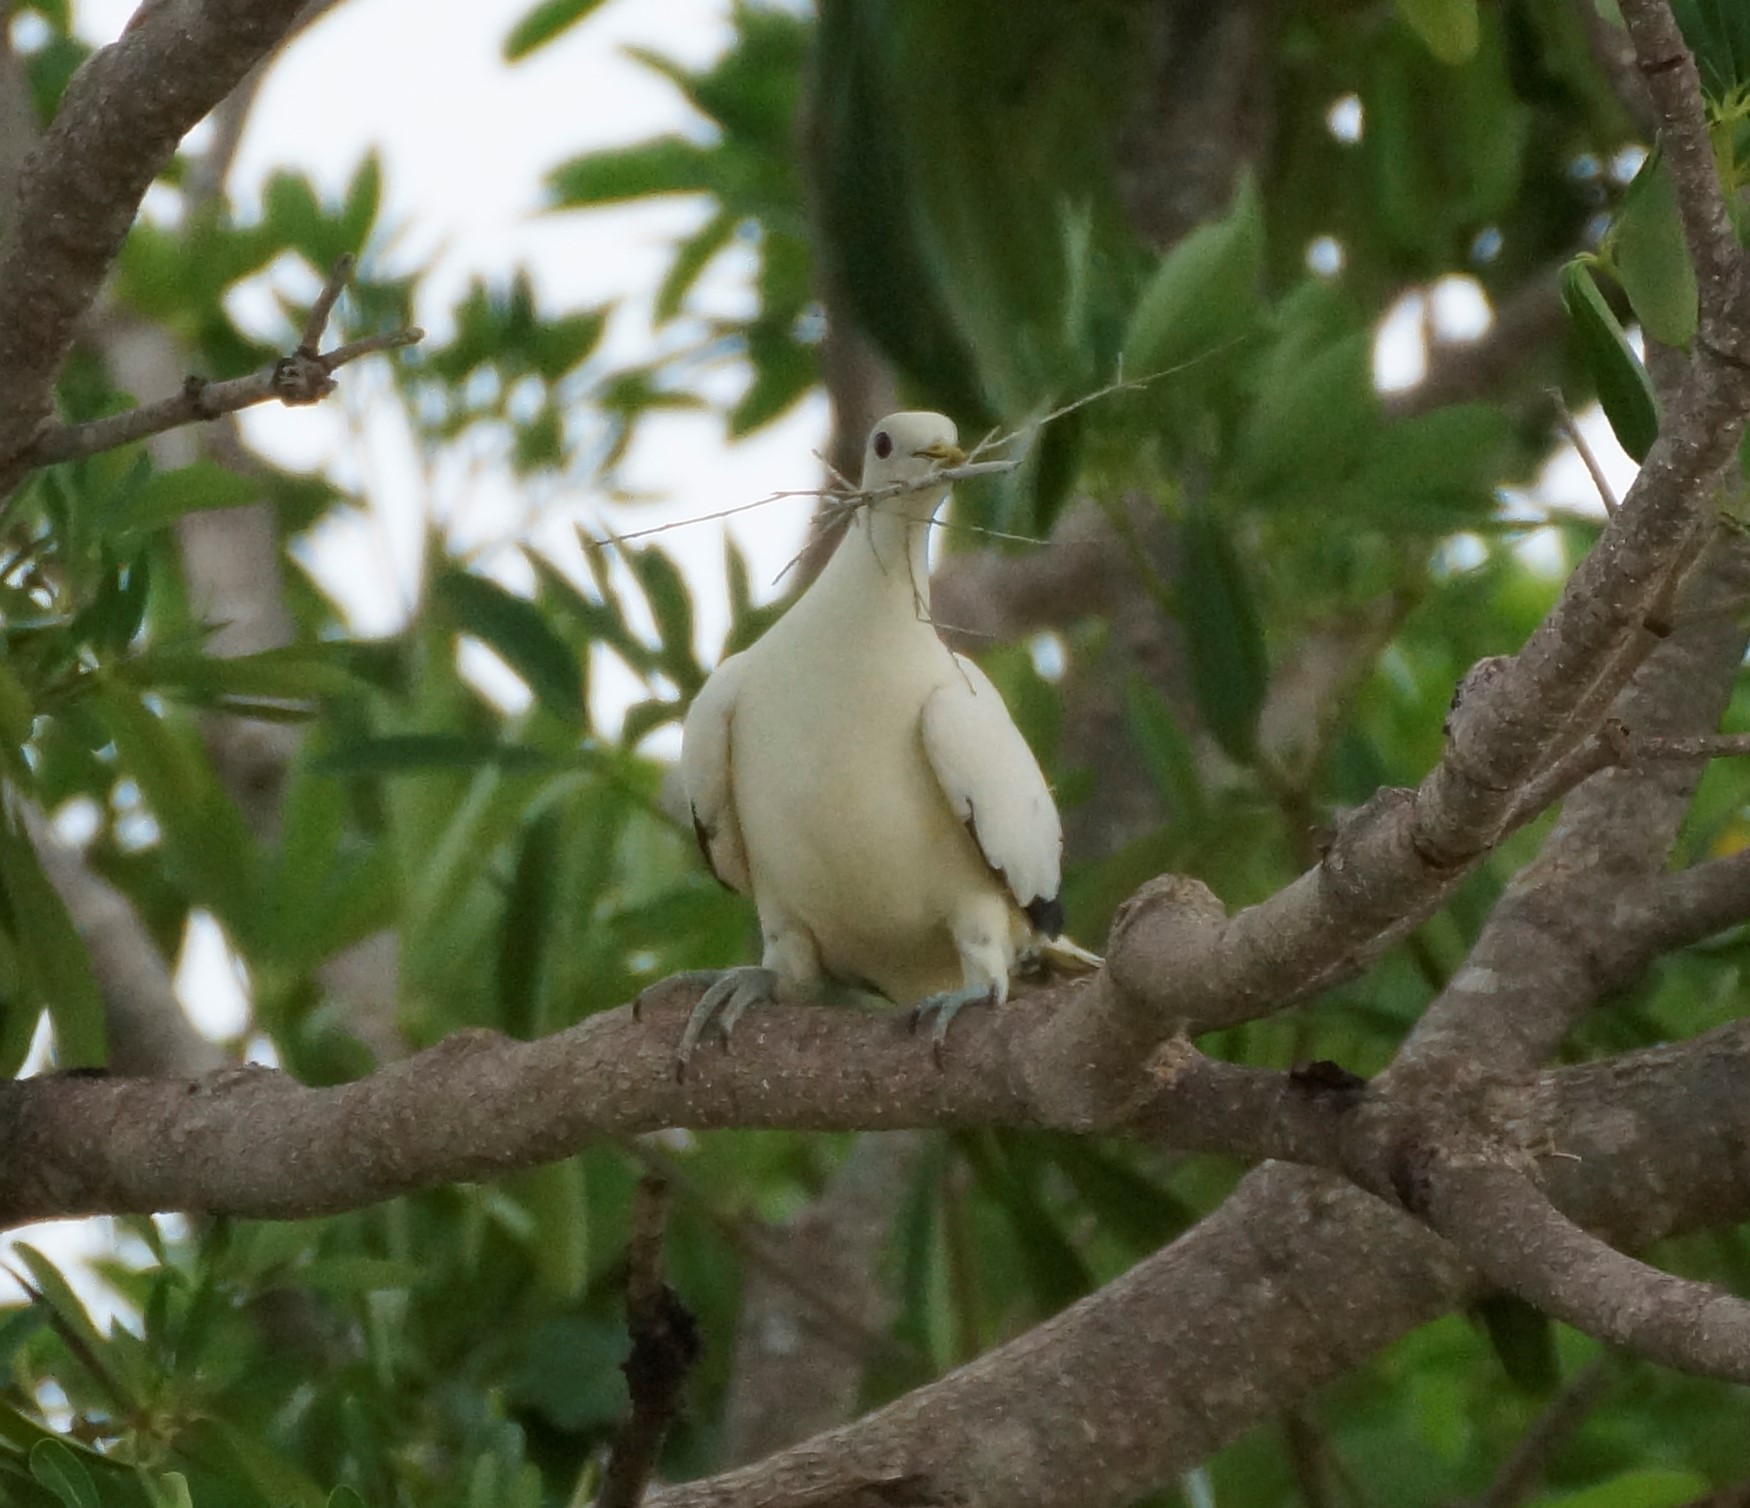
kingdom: Animalia
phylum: Chordata
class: Aves
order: Columbiformes
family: Columbidae
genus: Ducula
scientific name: Ducula spilorrhoa
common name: Torresian imperial pigeon
